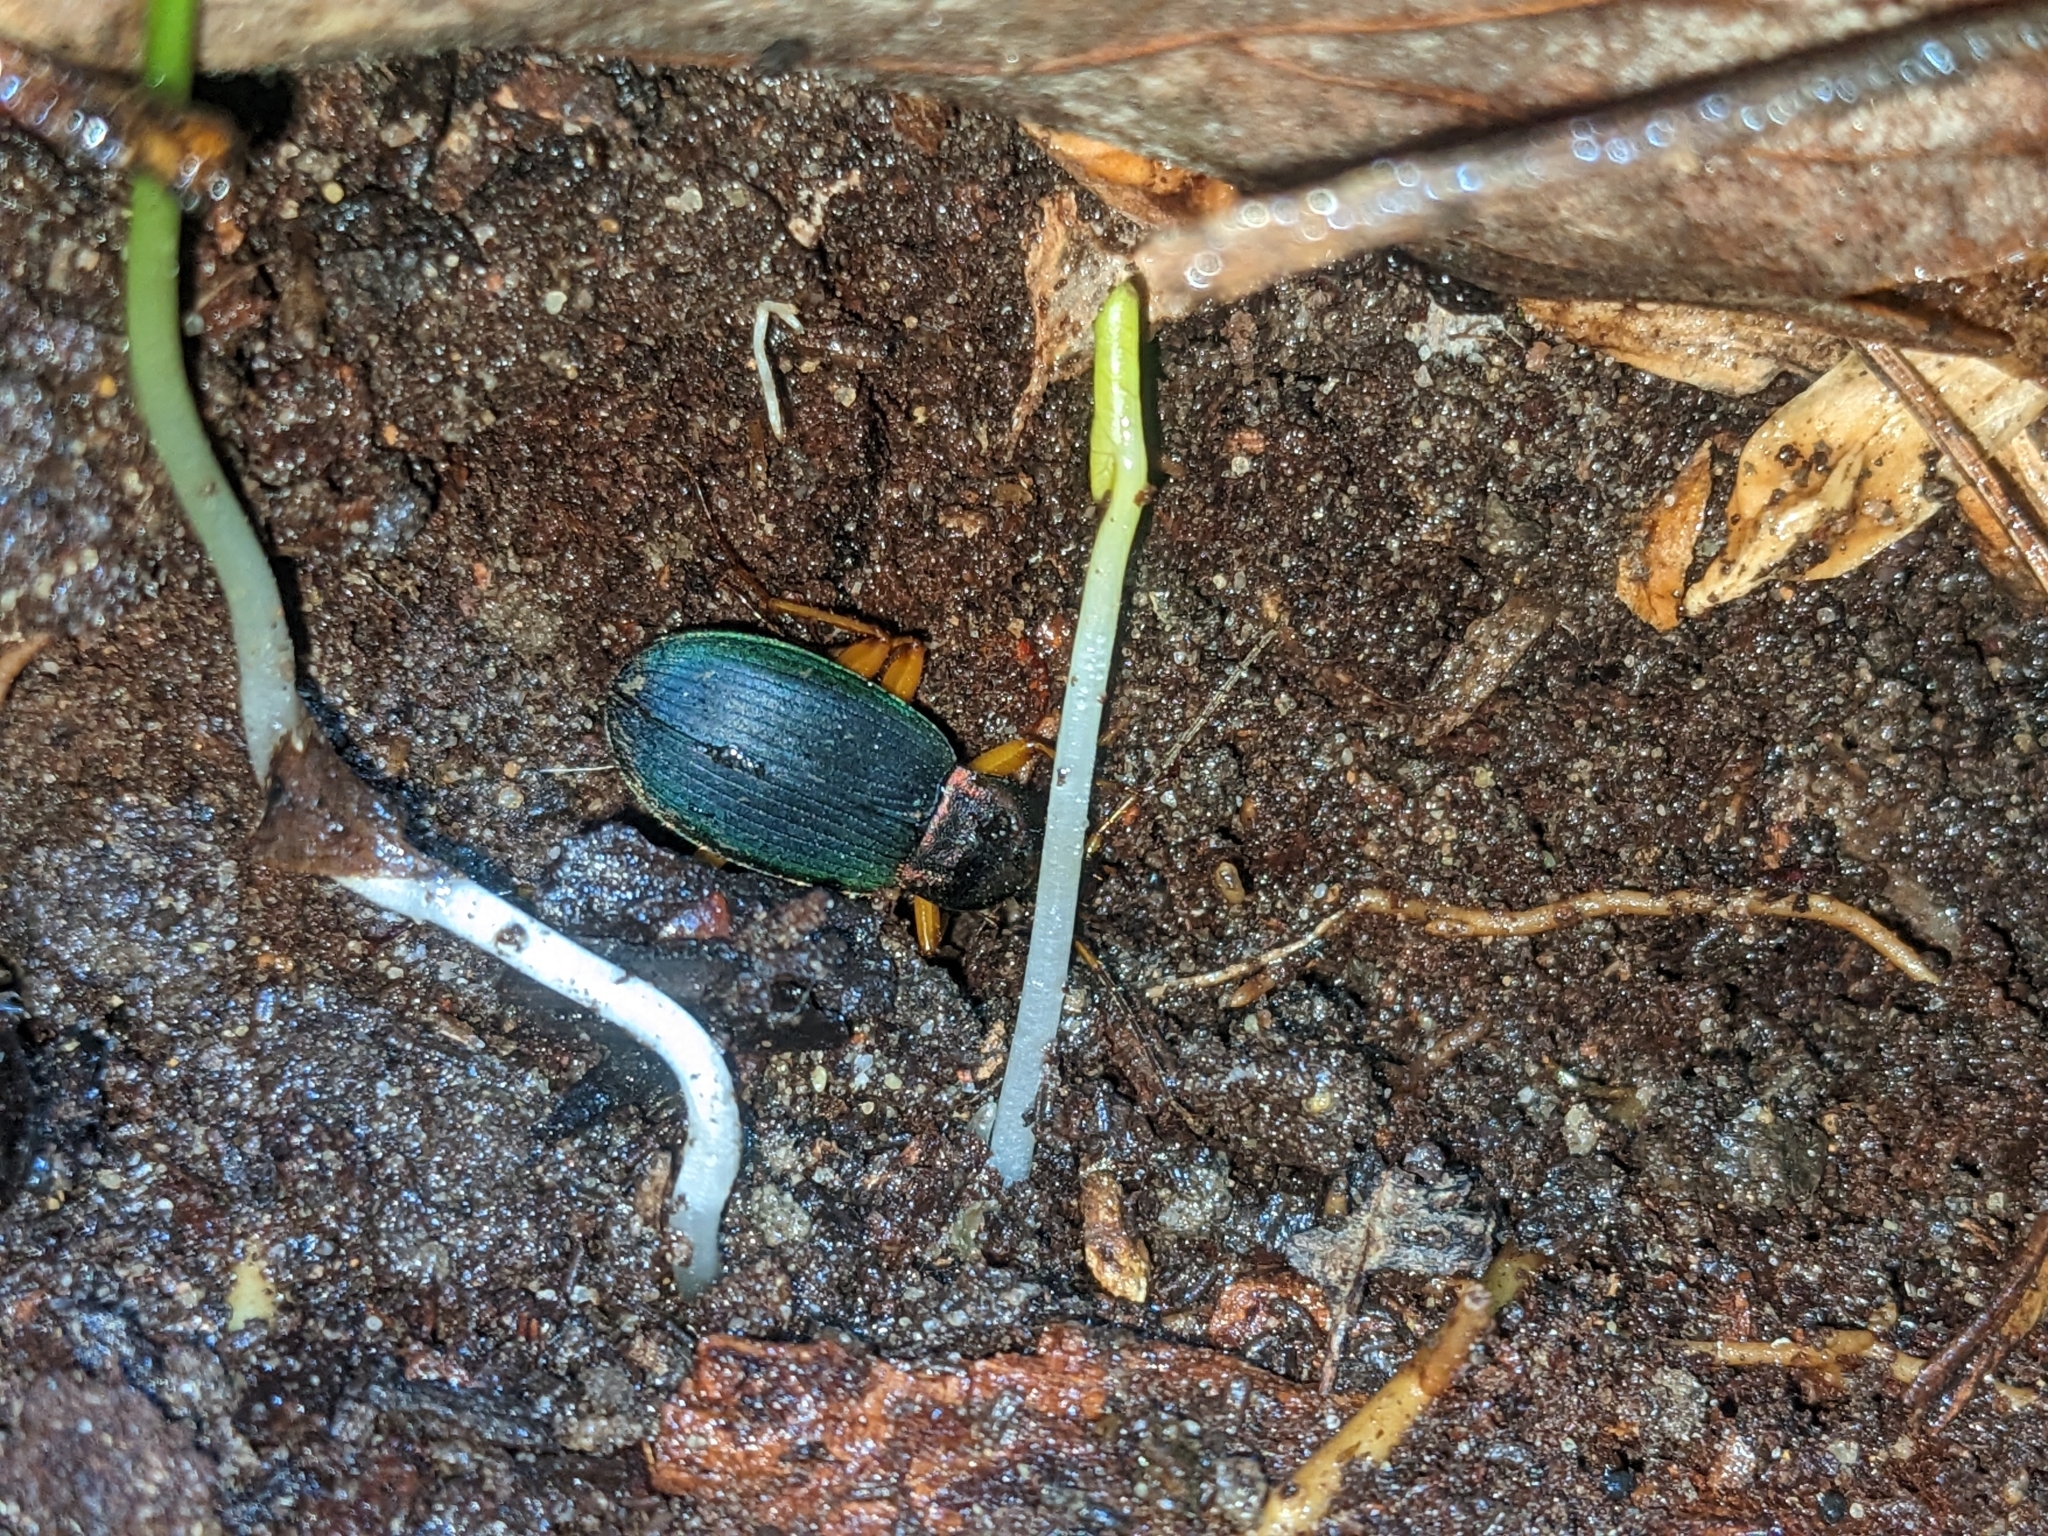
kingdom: Animalia
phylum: Arthropoda
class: Insecta
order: Coleoptera
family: Carabidae
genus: Chlaenius
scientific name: Chlaenius aestivus
